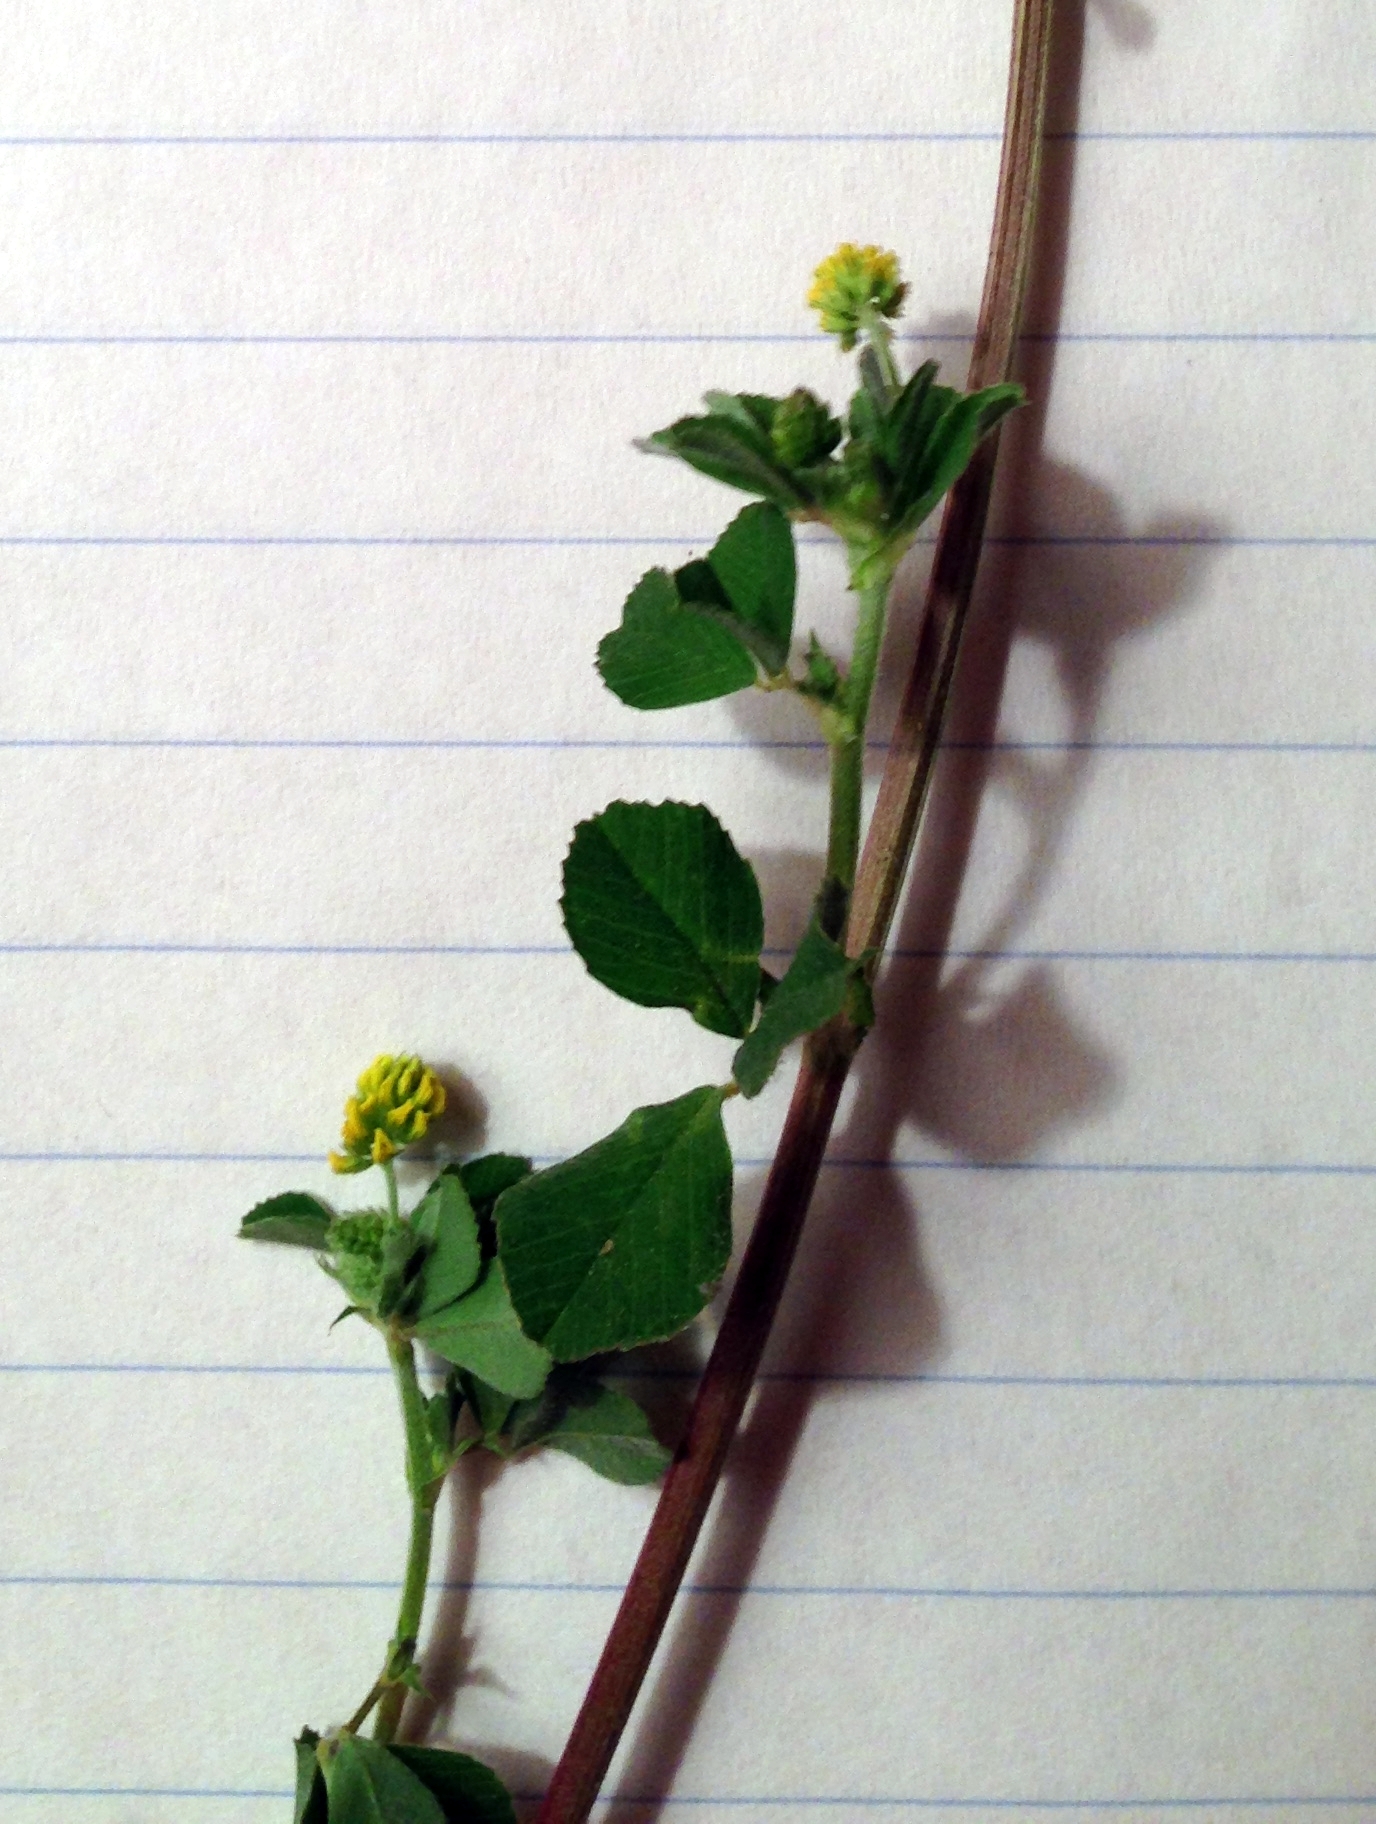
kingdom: Plantae
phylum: Tracheophyta
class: Magnoliopsida
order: Fabales
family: Fabaceae
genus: Medicago
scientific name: Medicago lupulina
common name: Black medick
